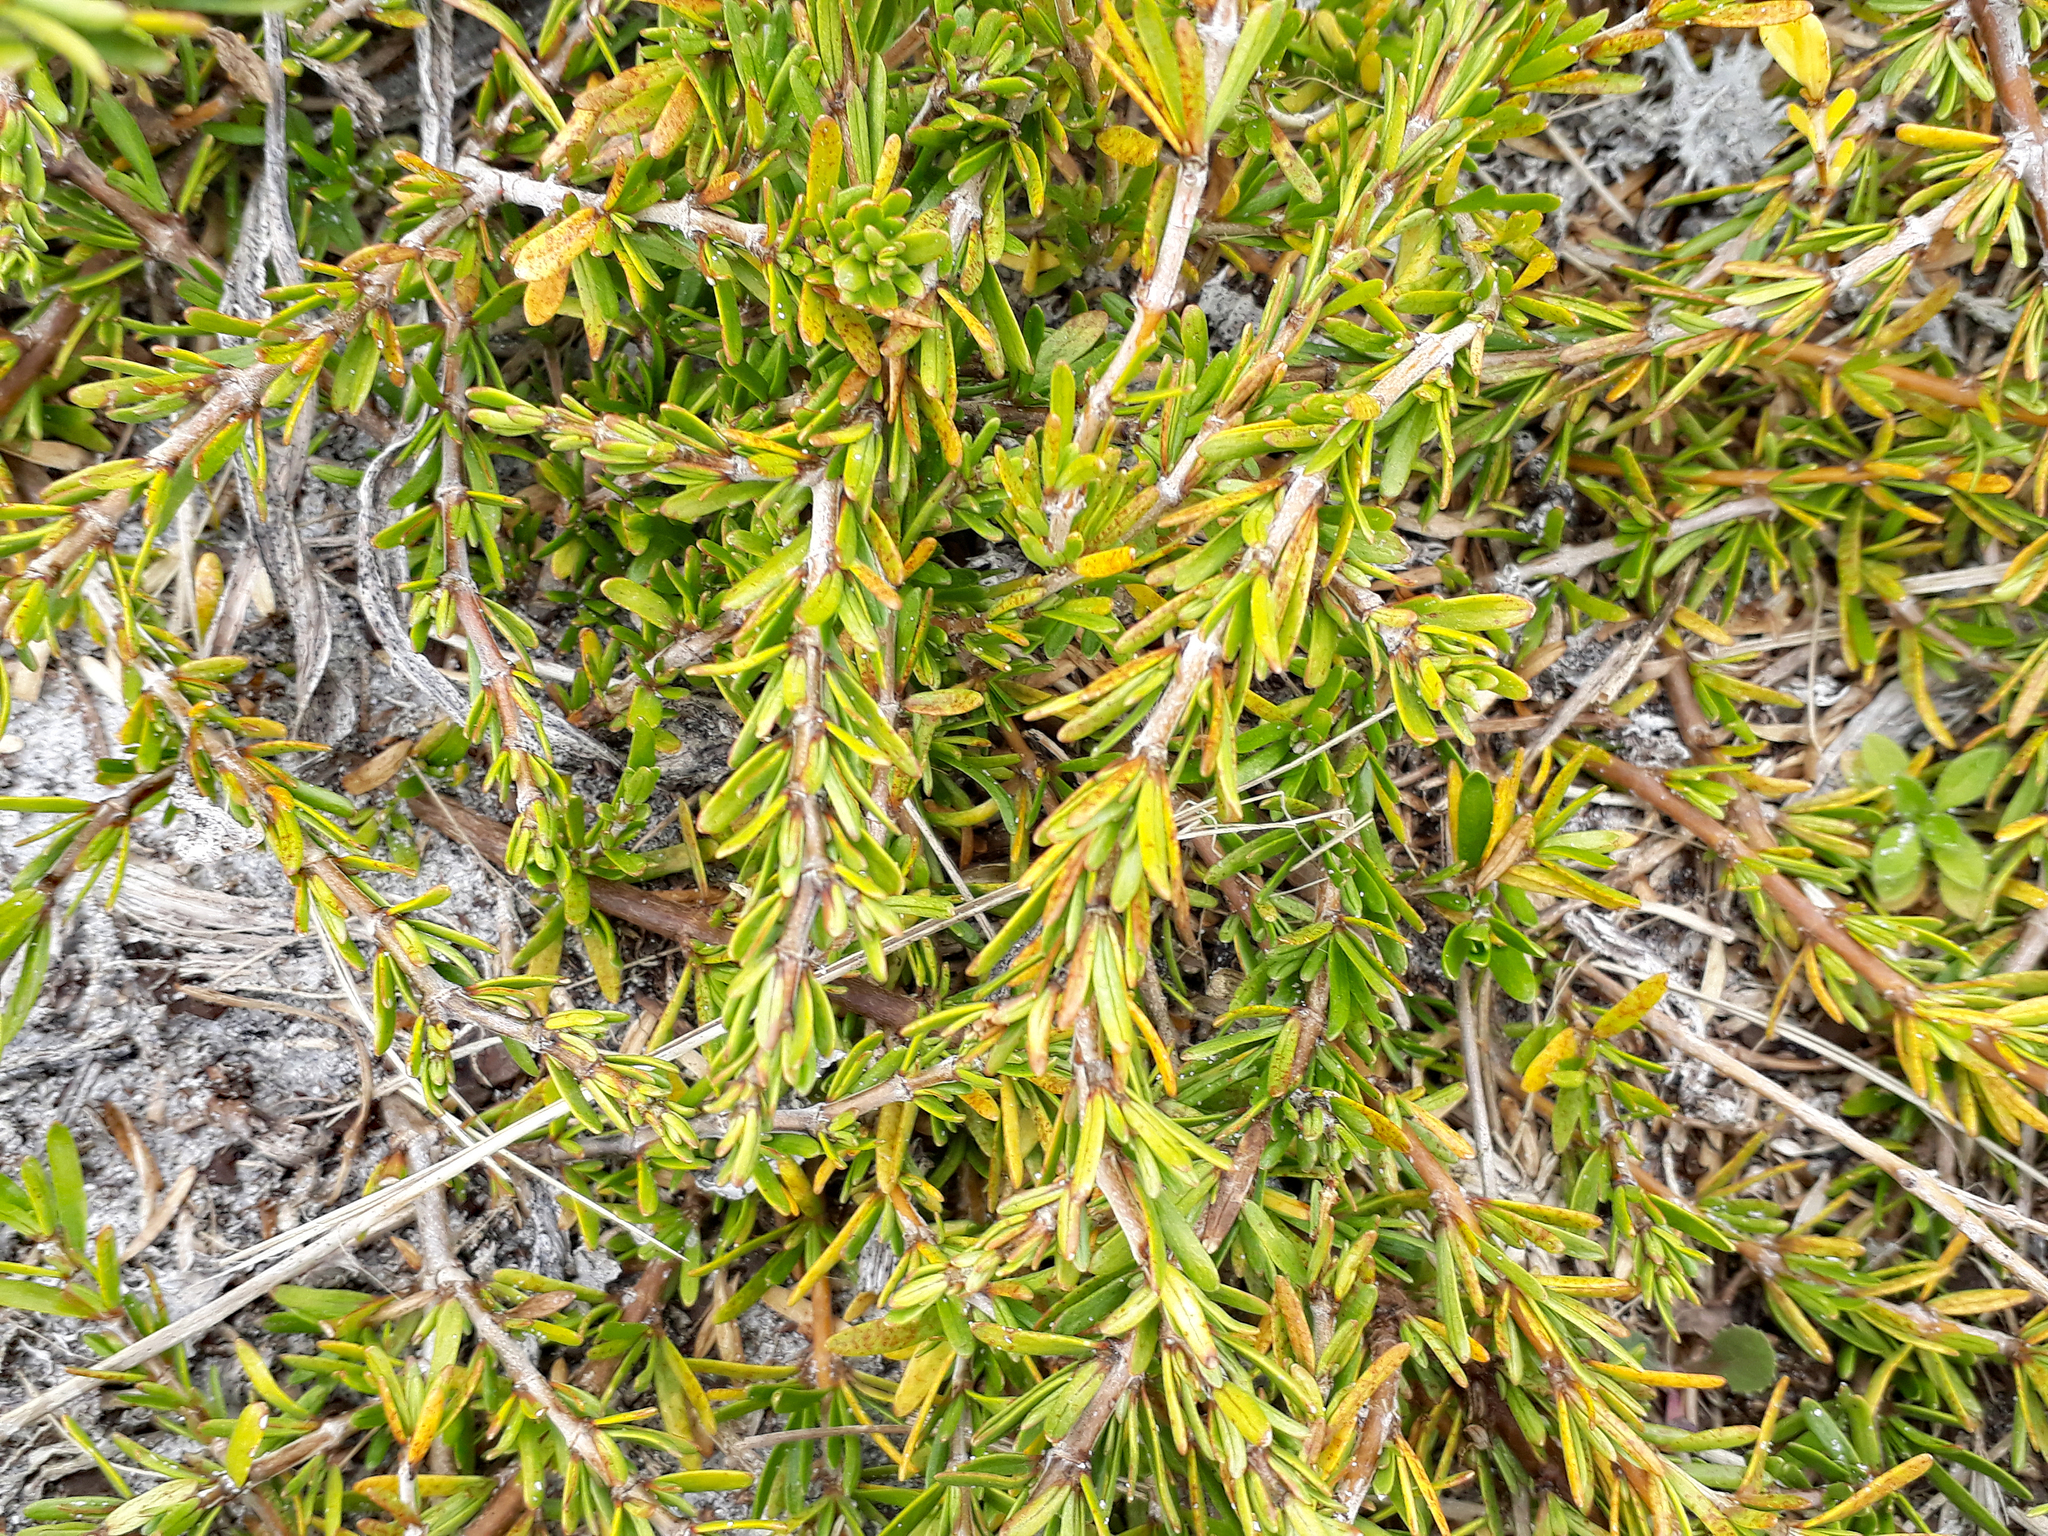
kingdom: Plantae
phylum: Tracheophyta
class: Magnoliopsida
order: Gentianales
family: Rubiaceae
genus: Coprosma
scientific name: Coprosma acerosa
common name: Sand coprosma
